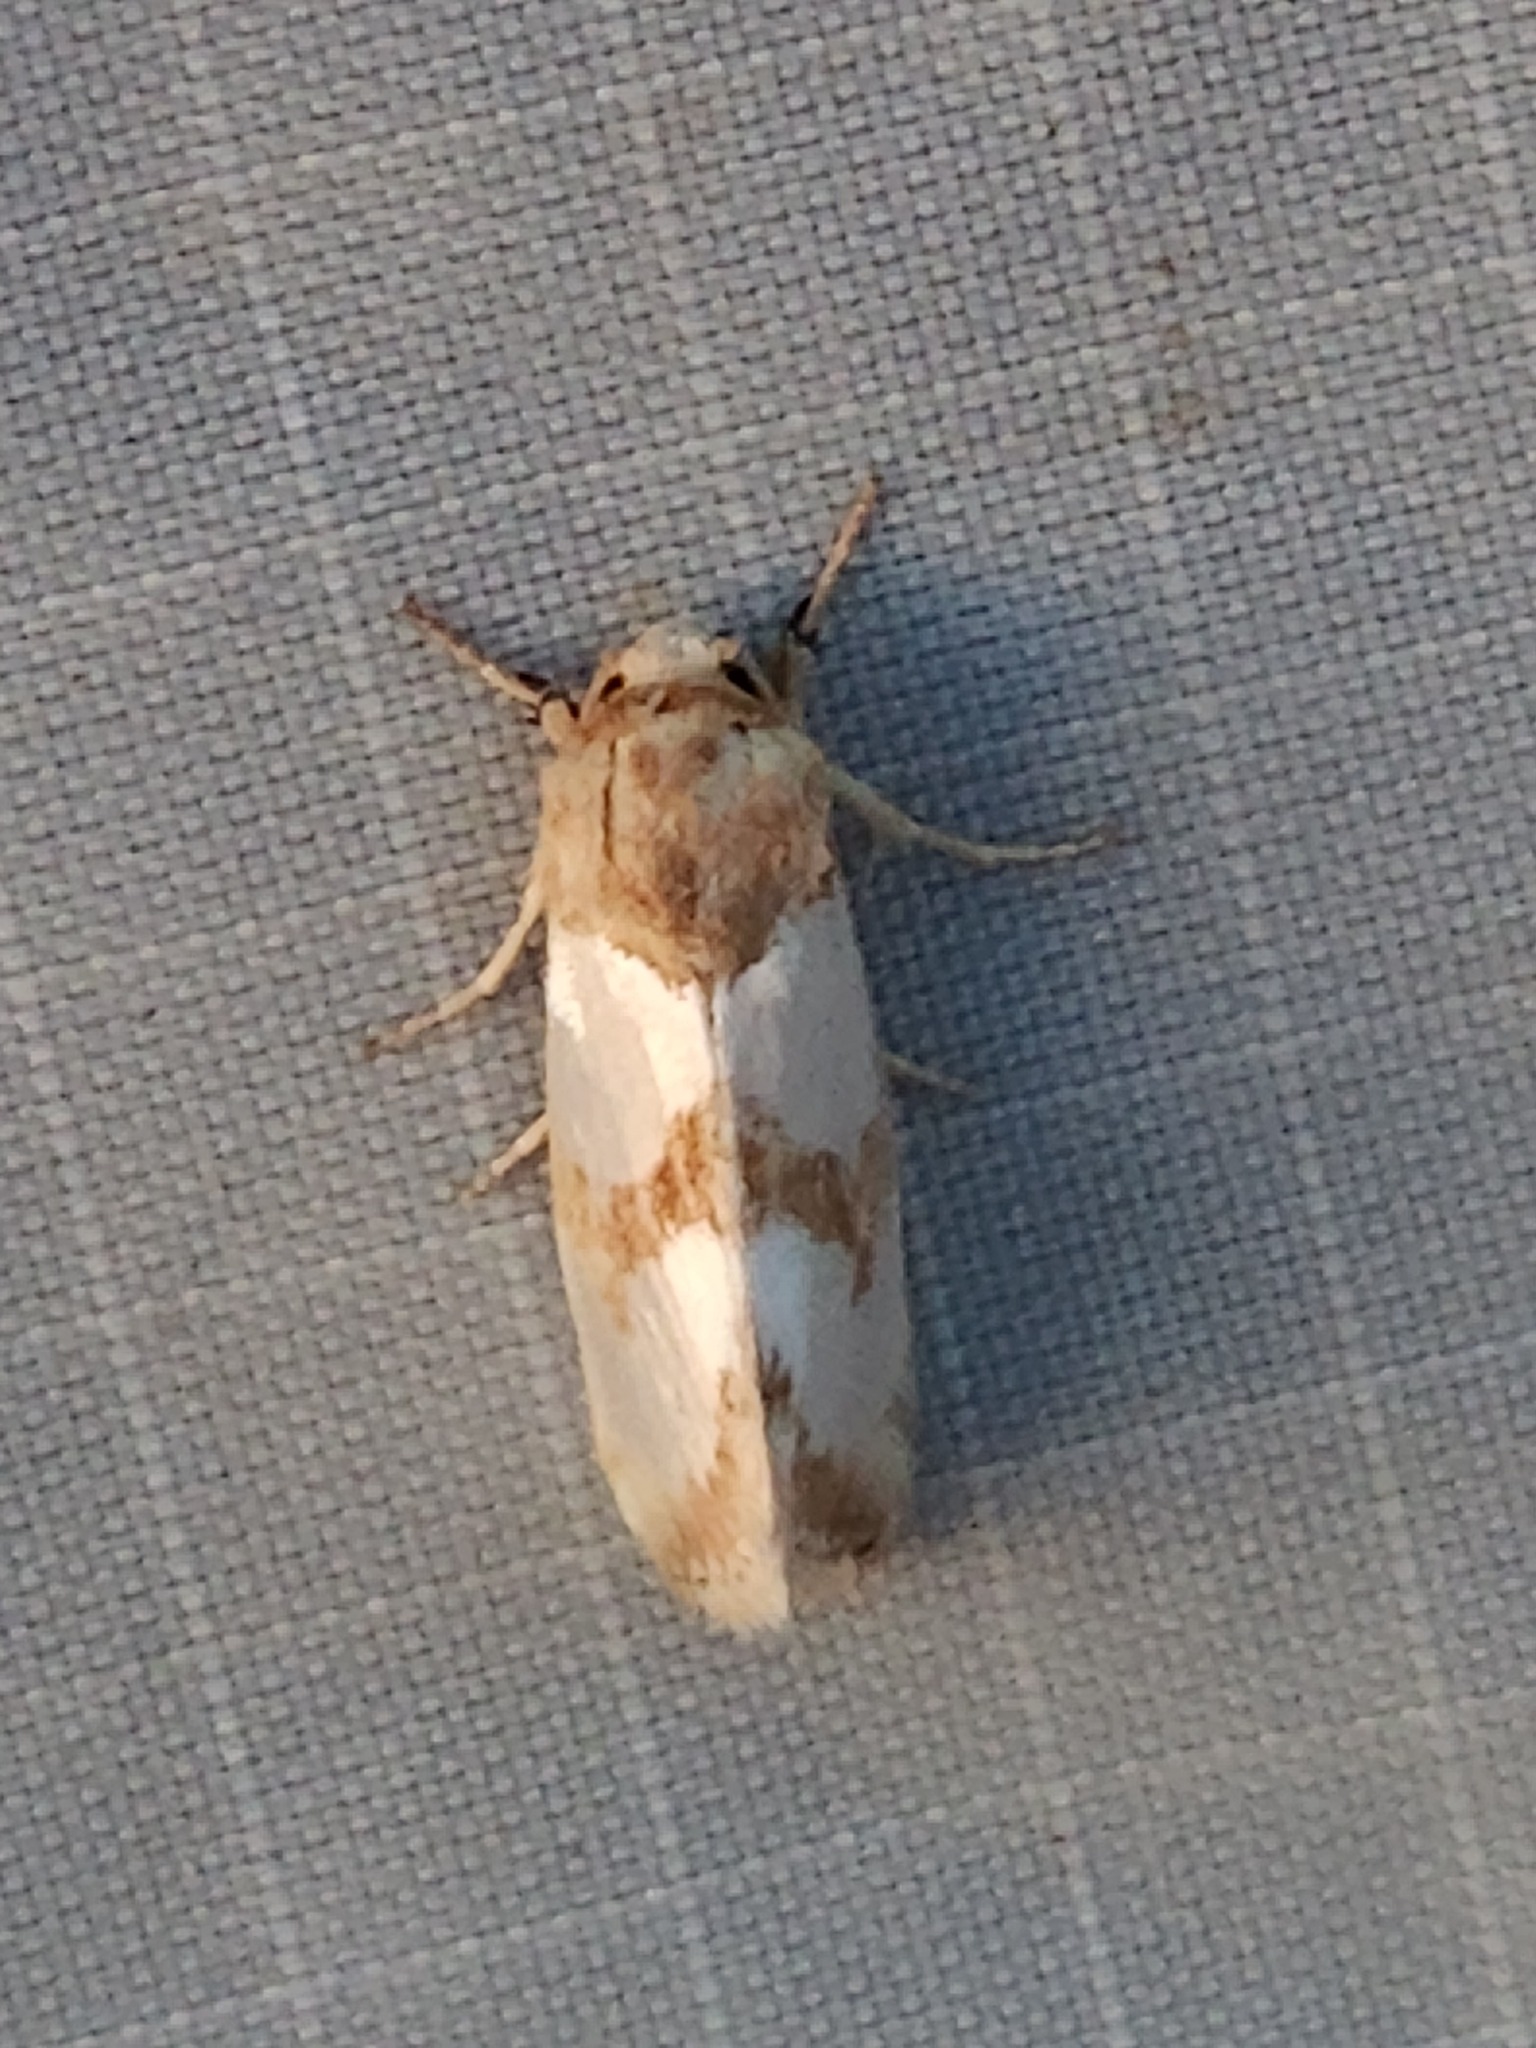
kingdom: Animalia
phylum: Arthropoda
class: Insecta
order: Lepidoptera
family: Noctuidae
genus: Schinia
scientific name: Schinia chrysellus
